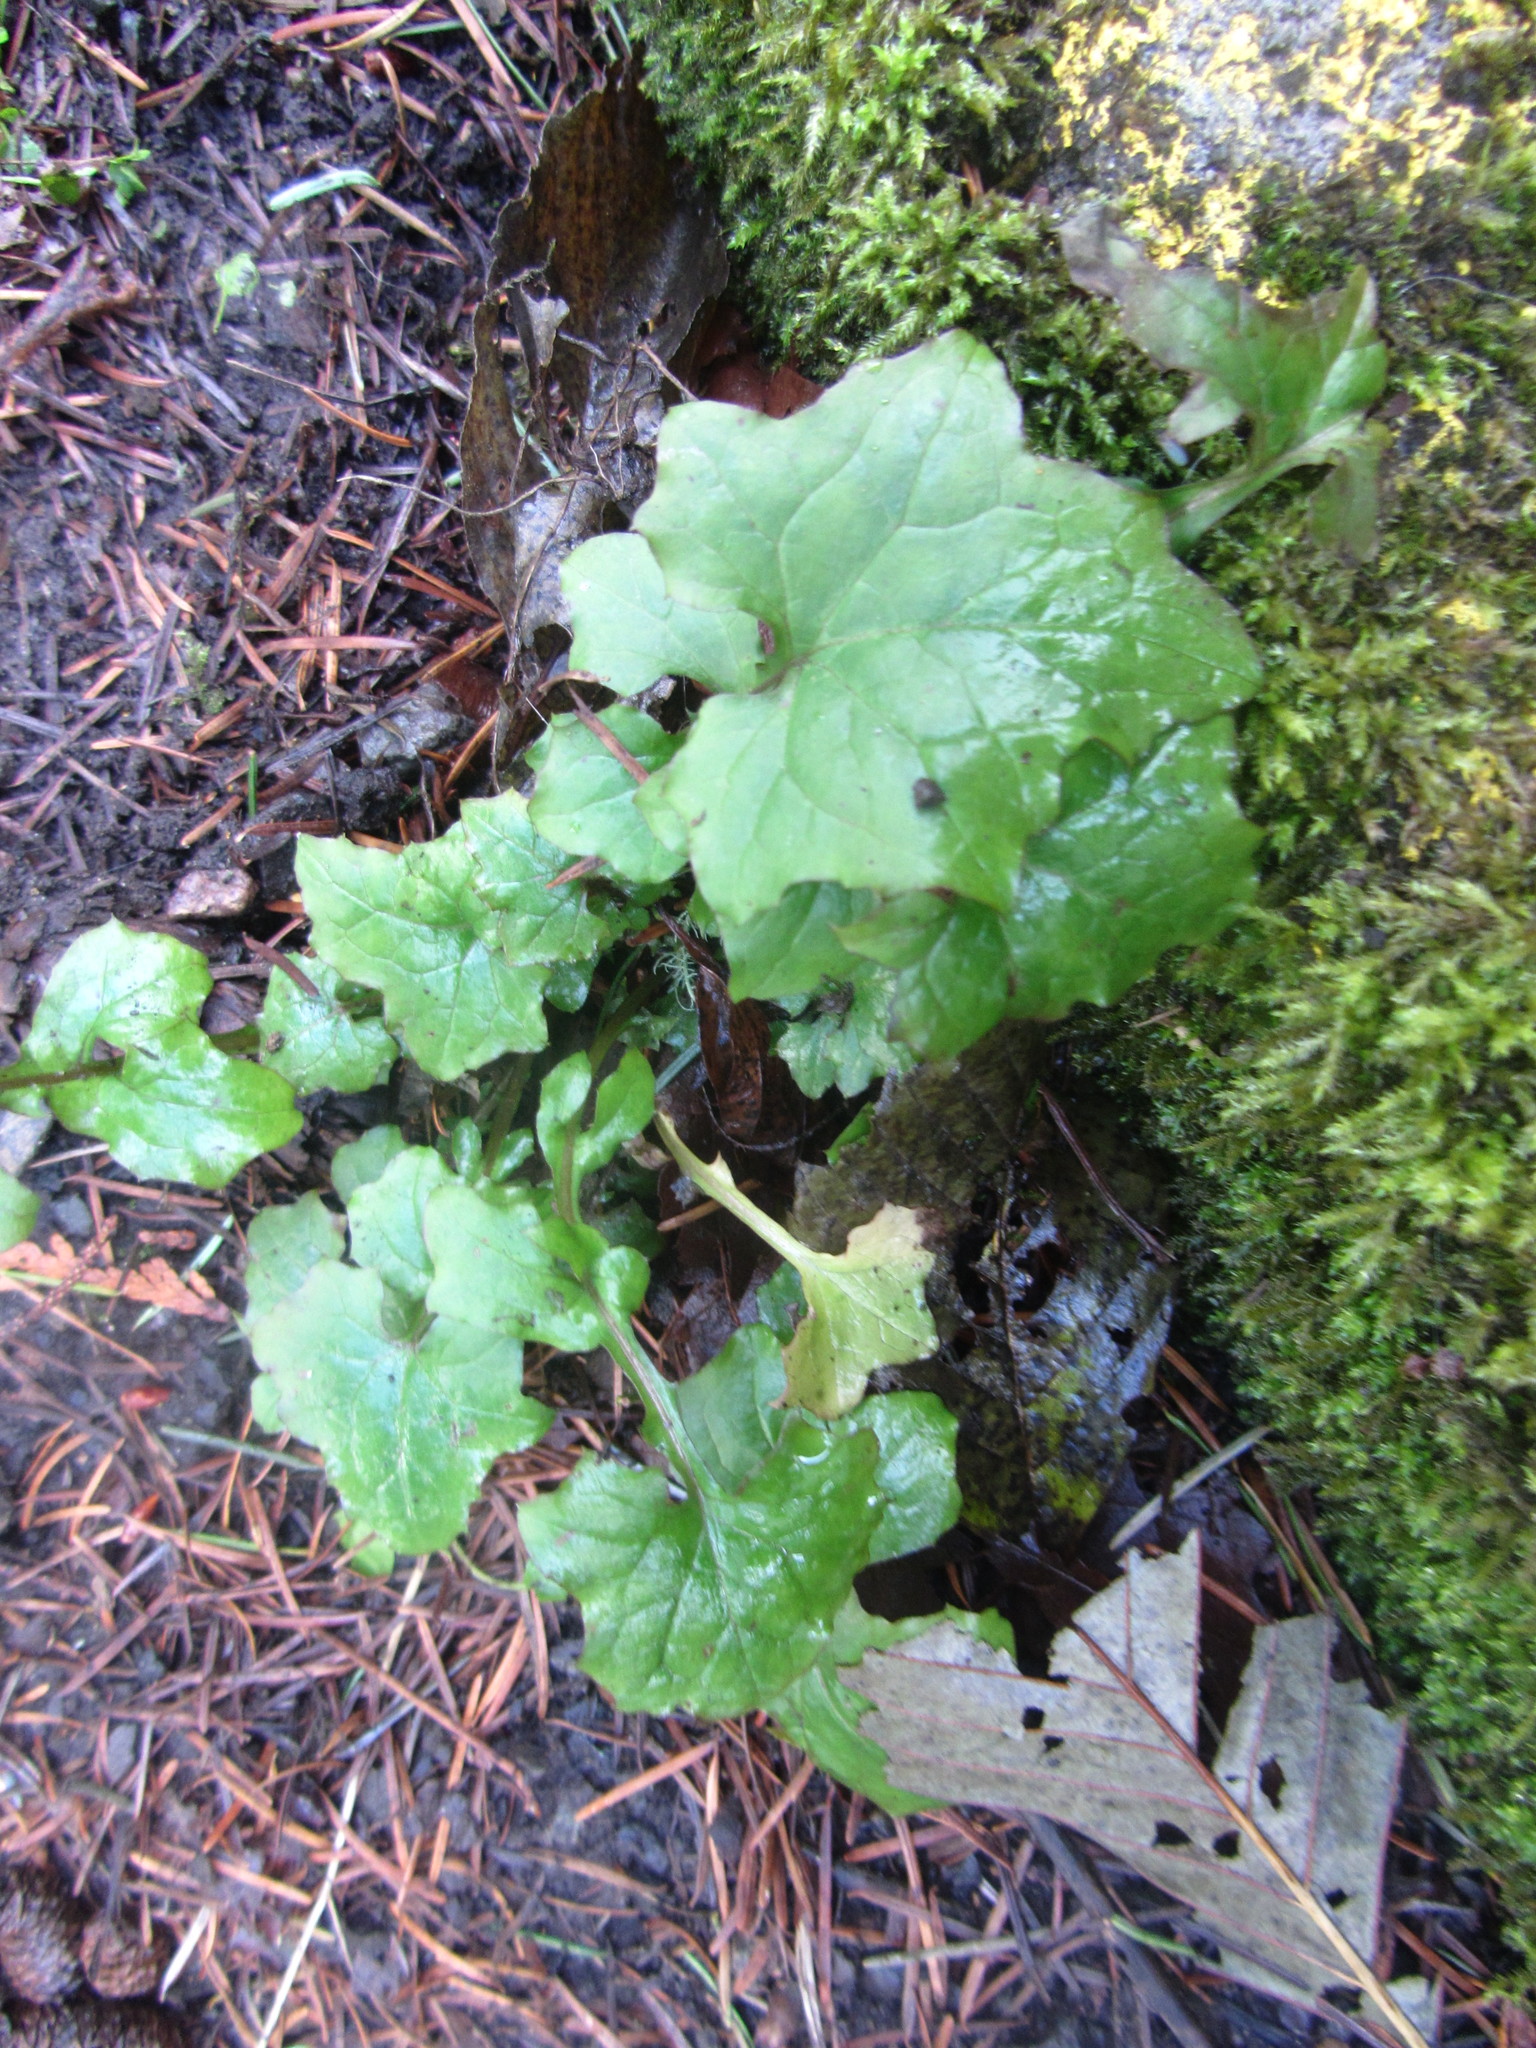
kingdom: Plantae
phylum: Tracheophyta
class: Magnoliopsida
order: Asterales
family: Asteraceae
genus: Mycelis
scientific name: Mycelis muralis
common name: Wall lettuce
